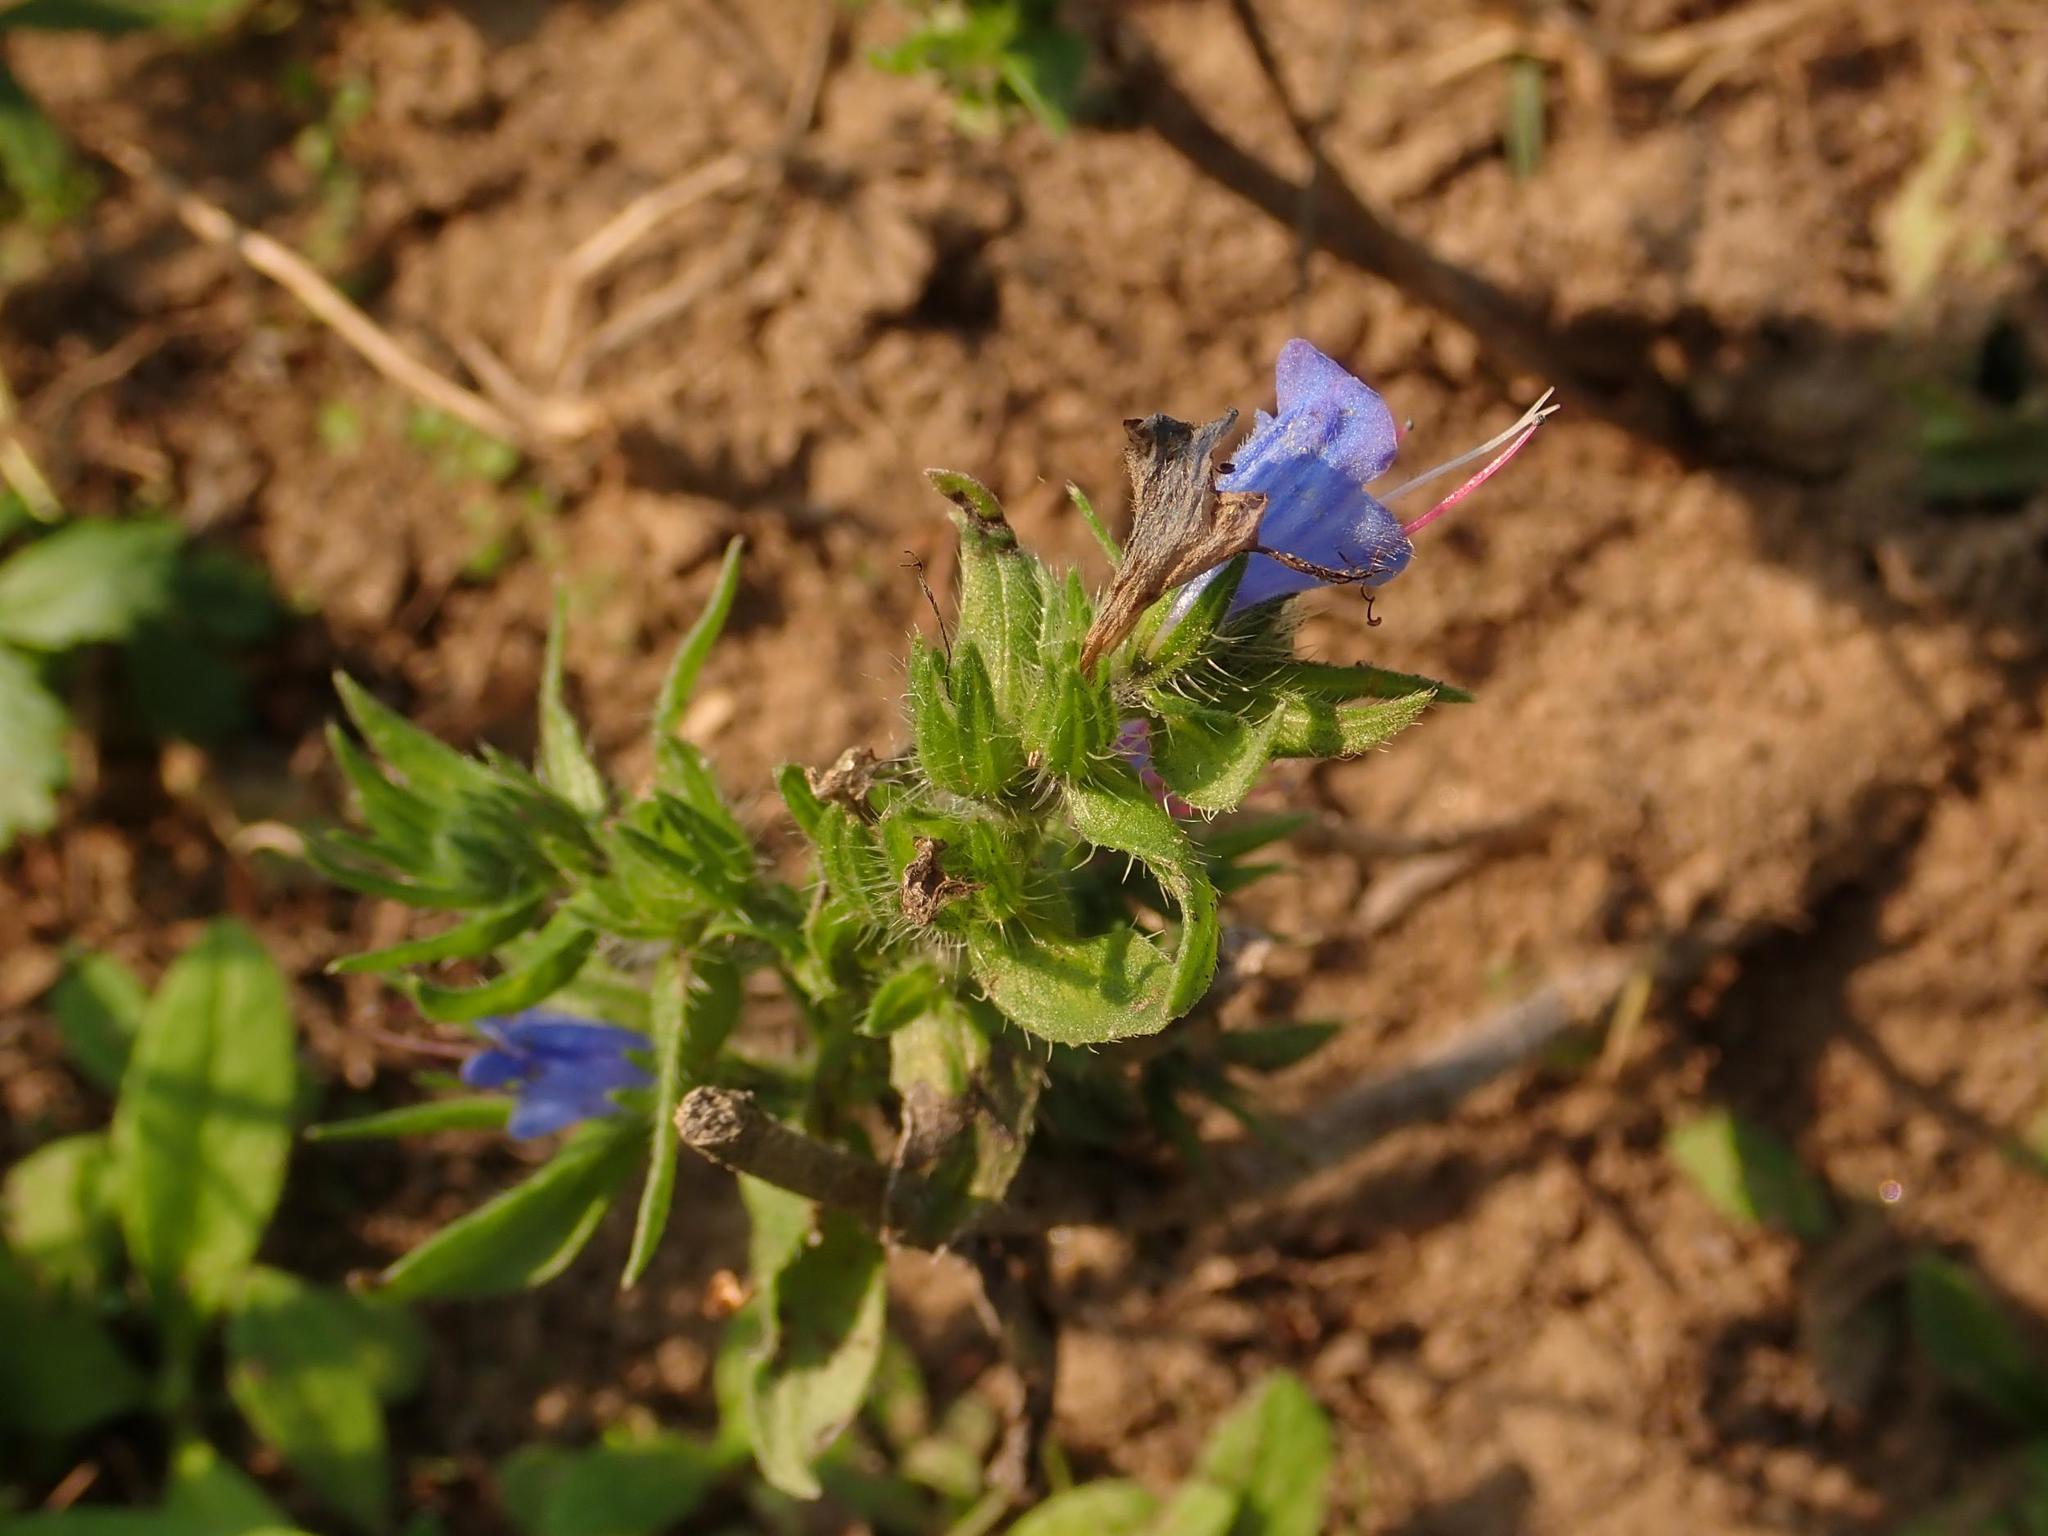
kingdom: Plantae
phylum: Tracheophyta
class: Magnoliopsida
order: Boraginales
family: Boraginaceae
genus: Echium
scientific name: Echium vulgare
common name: Common viper's bugloss
